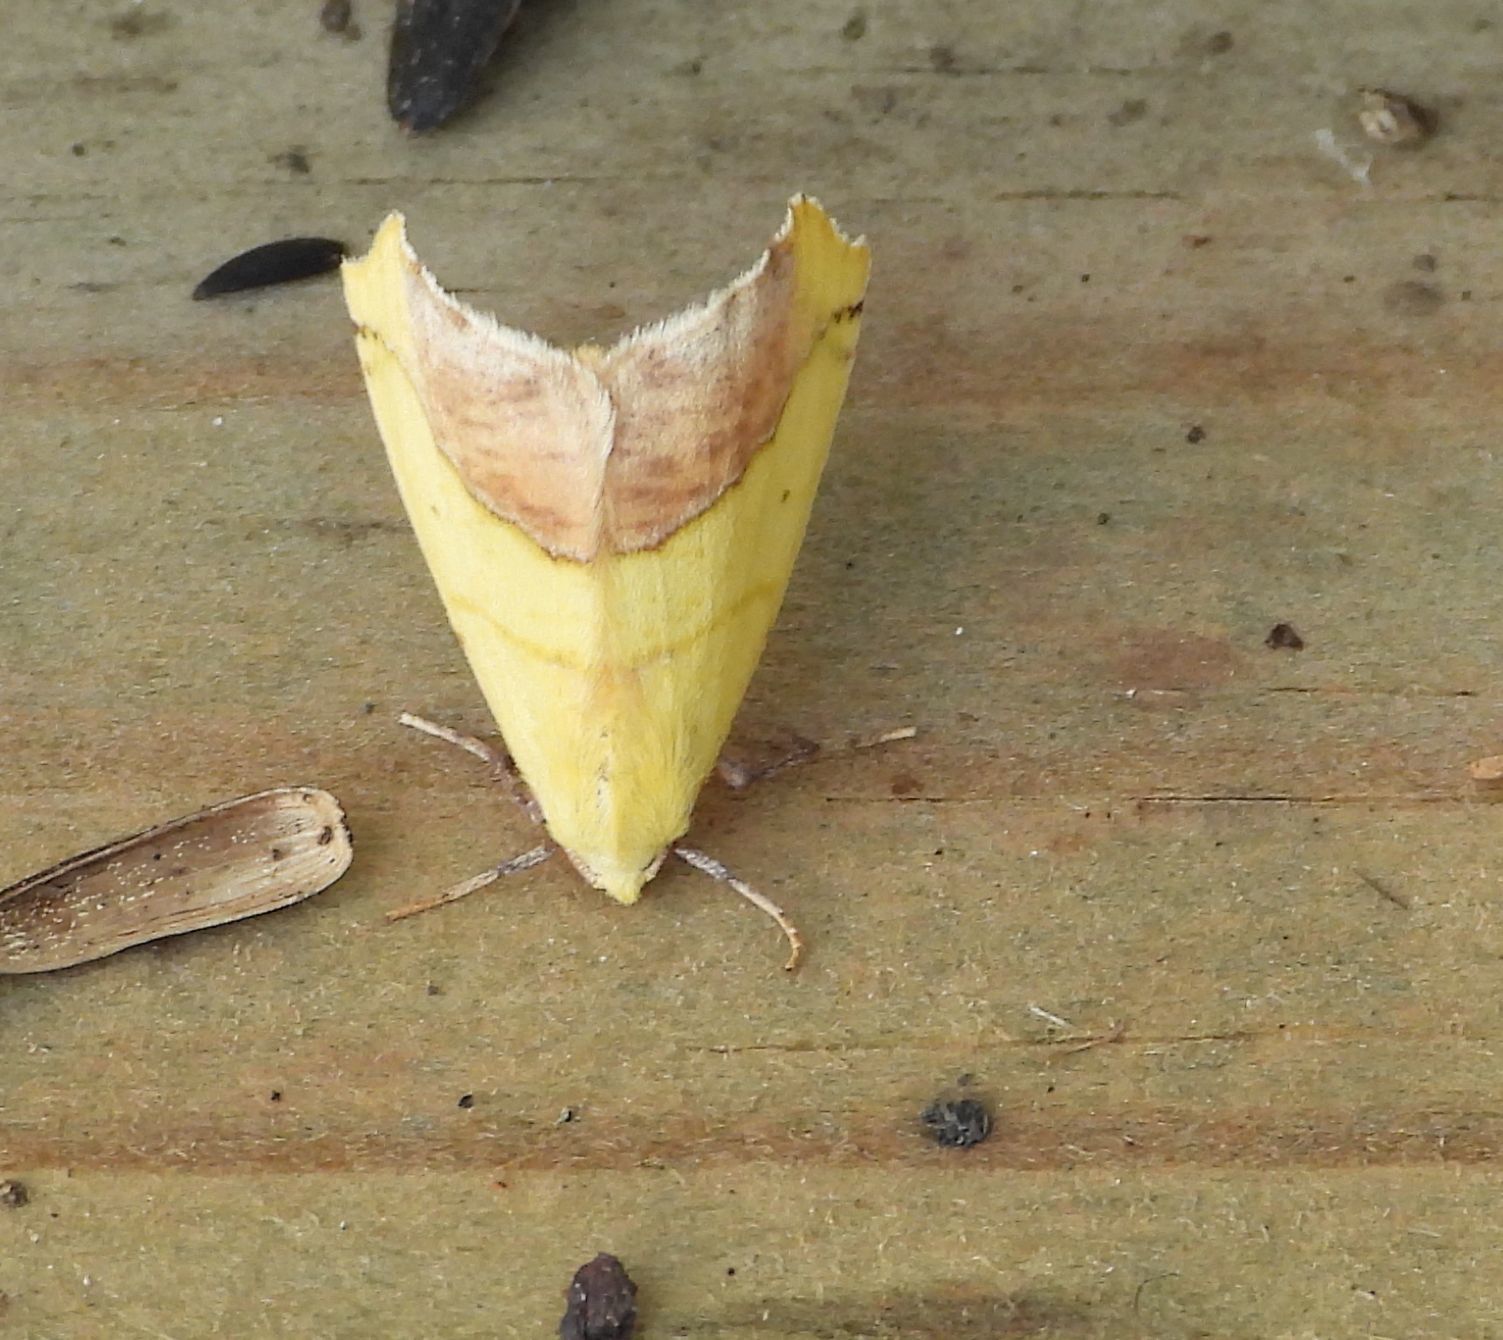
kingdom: Animalia
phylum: Arthropoda
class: Insecta
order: Lepidoptera
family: Geometridae
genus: Sicya
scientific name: Sicya macularia
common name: Sharp-lined yellow
